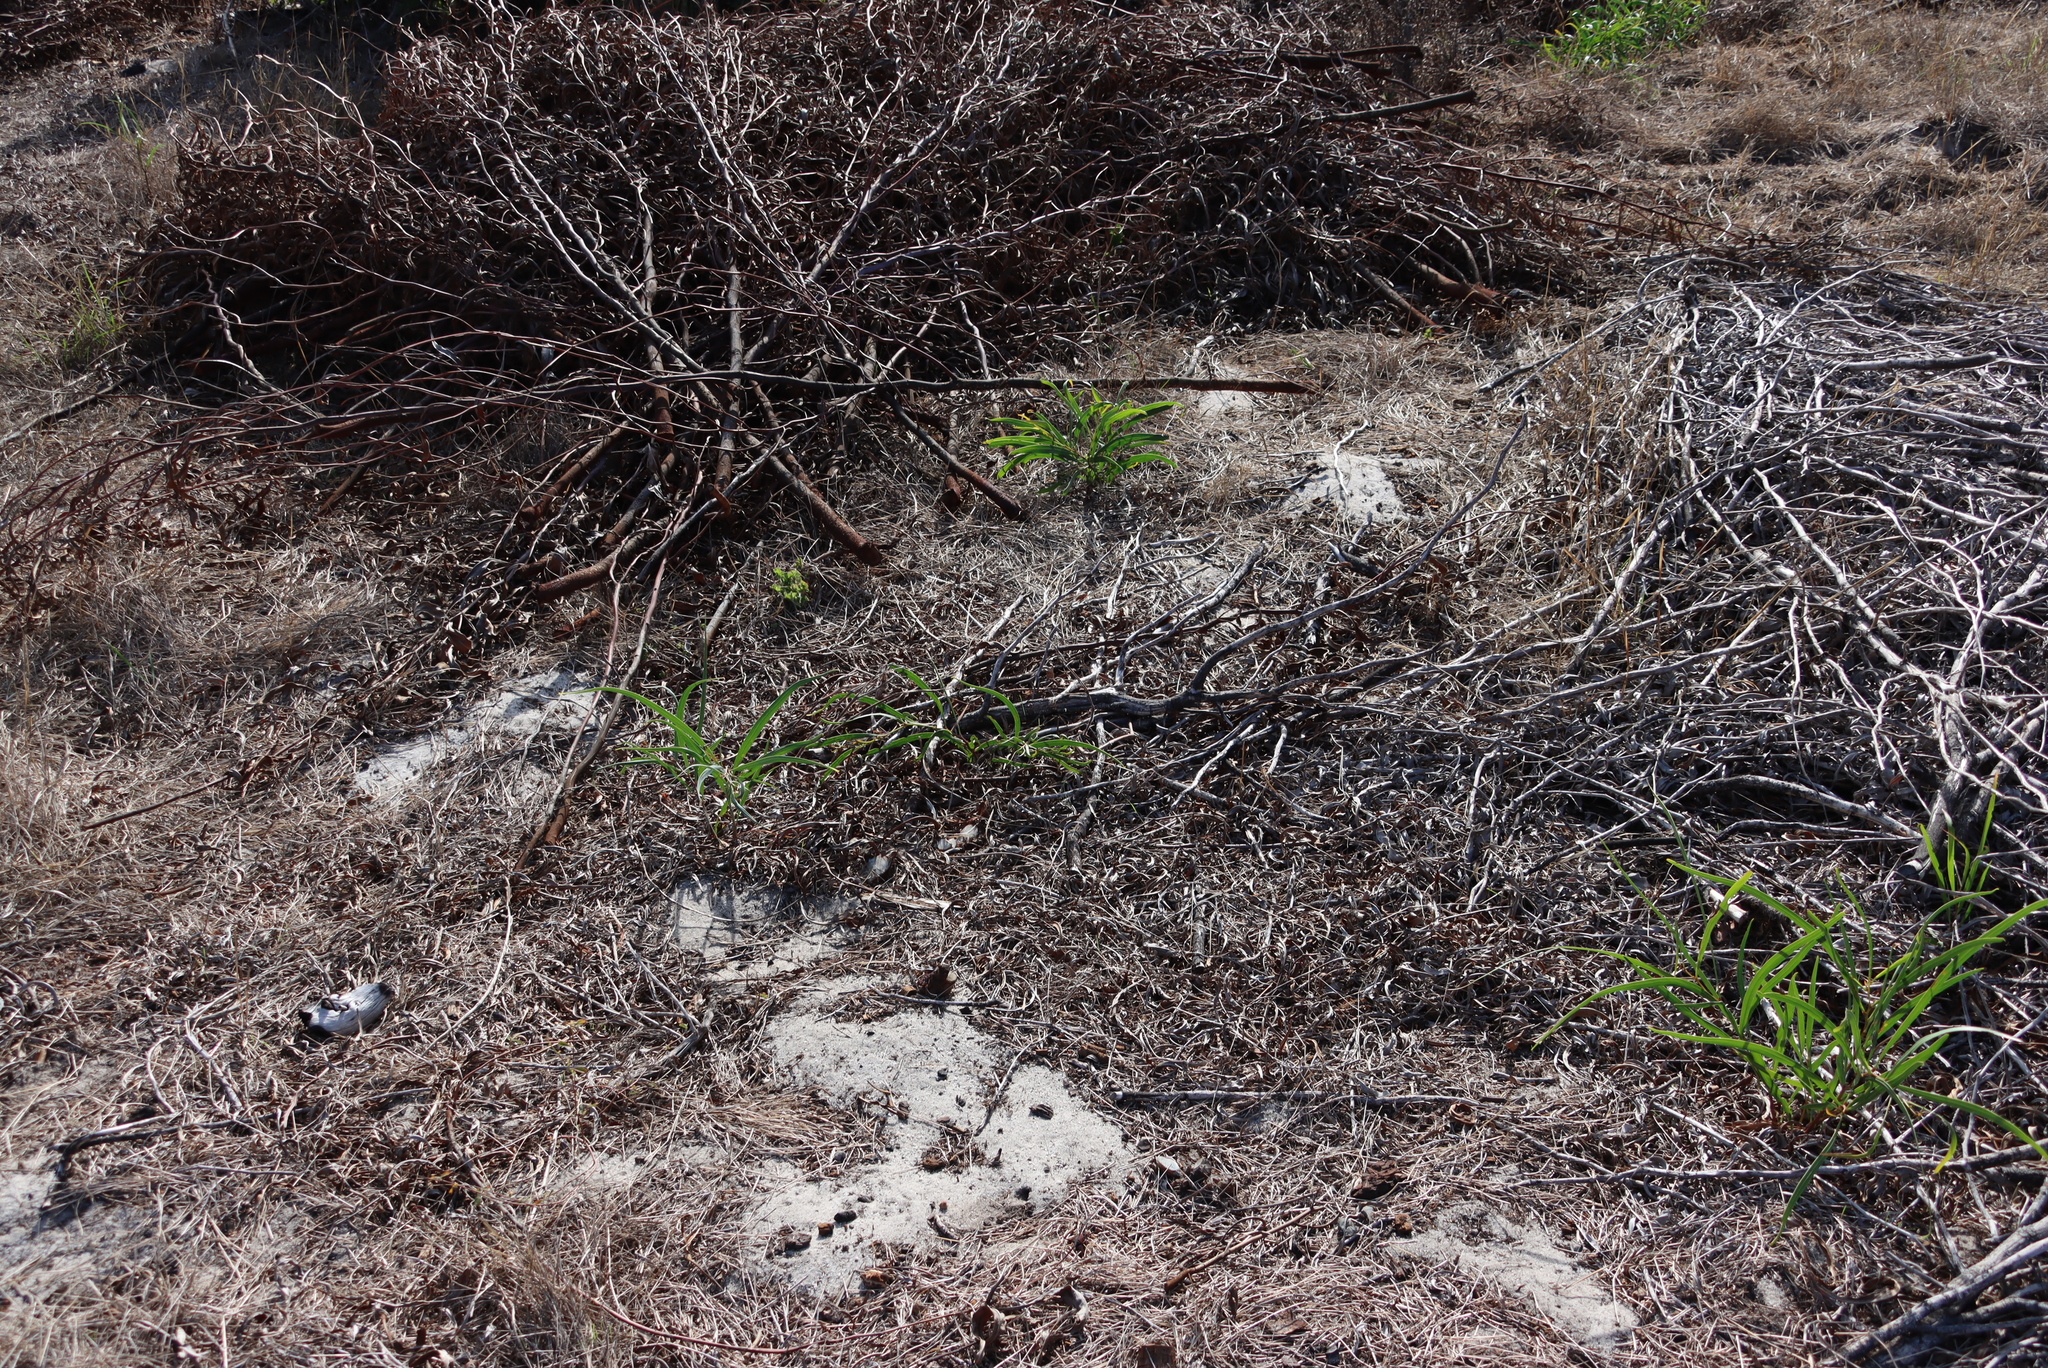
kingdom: Plantae
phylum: Tracheophyta
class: Magnoliopsida
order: Fabales
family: Fabaceae
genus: Acacia
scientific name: Acacia saligna
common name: Orange wattle
